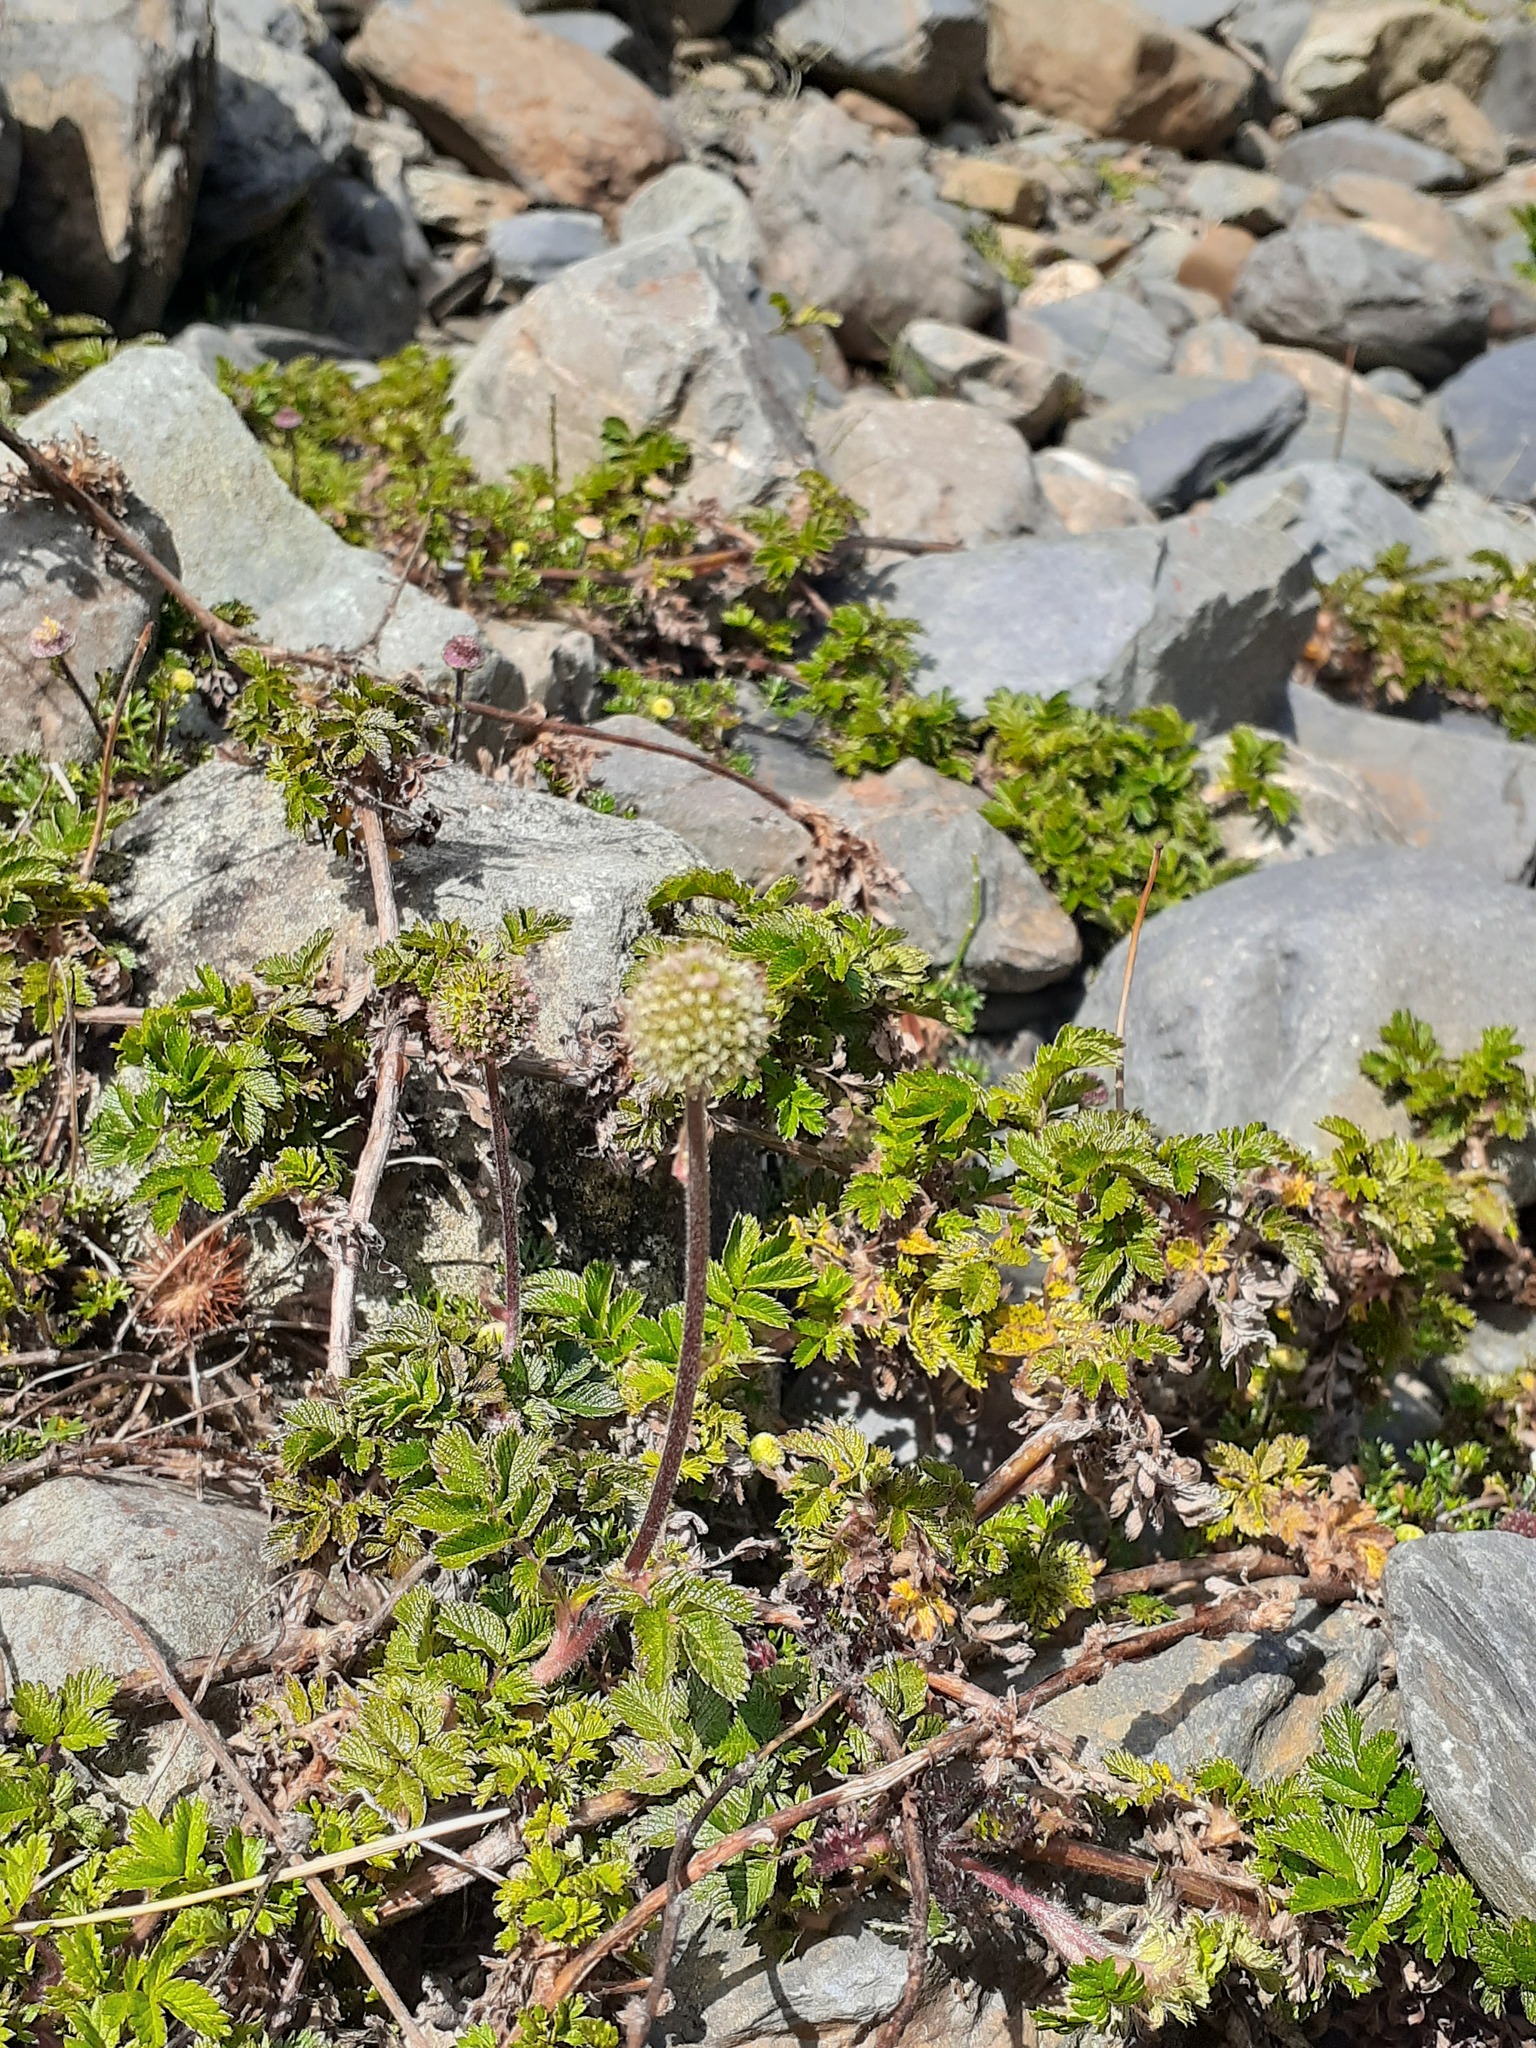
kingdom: Plantae
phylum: Tracheophyta
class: Magnoliopsida
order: Rosales
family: Rosaceae
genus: Acaena
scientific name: Acaena ovalifolia
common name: Two-spined acaena
